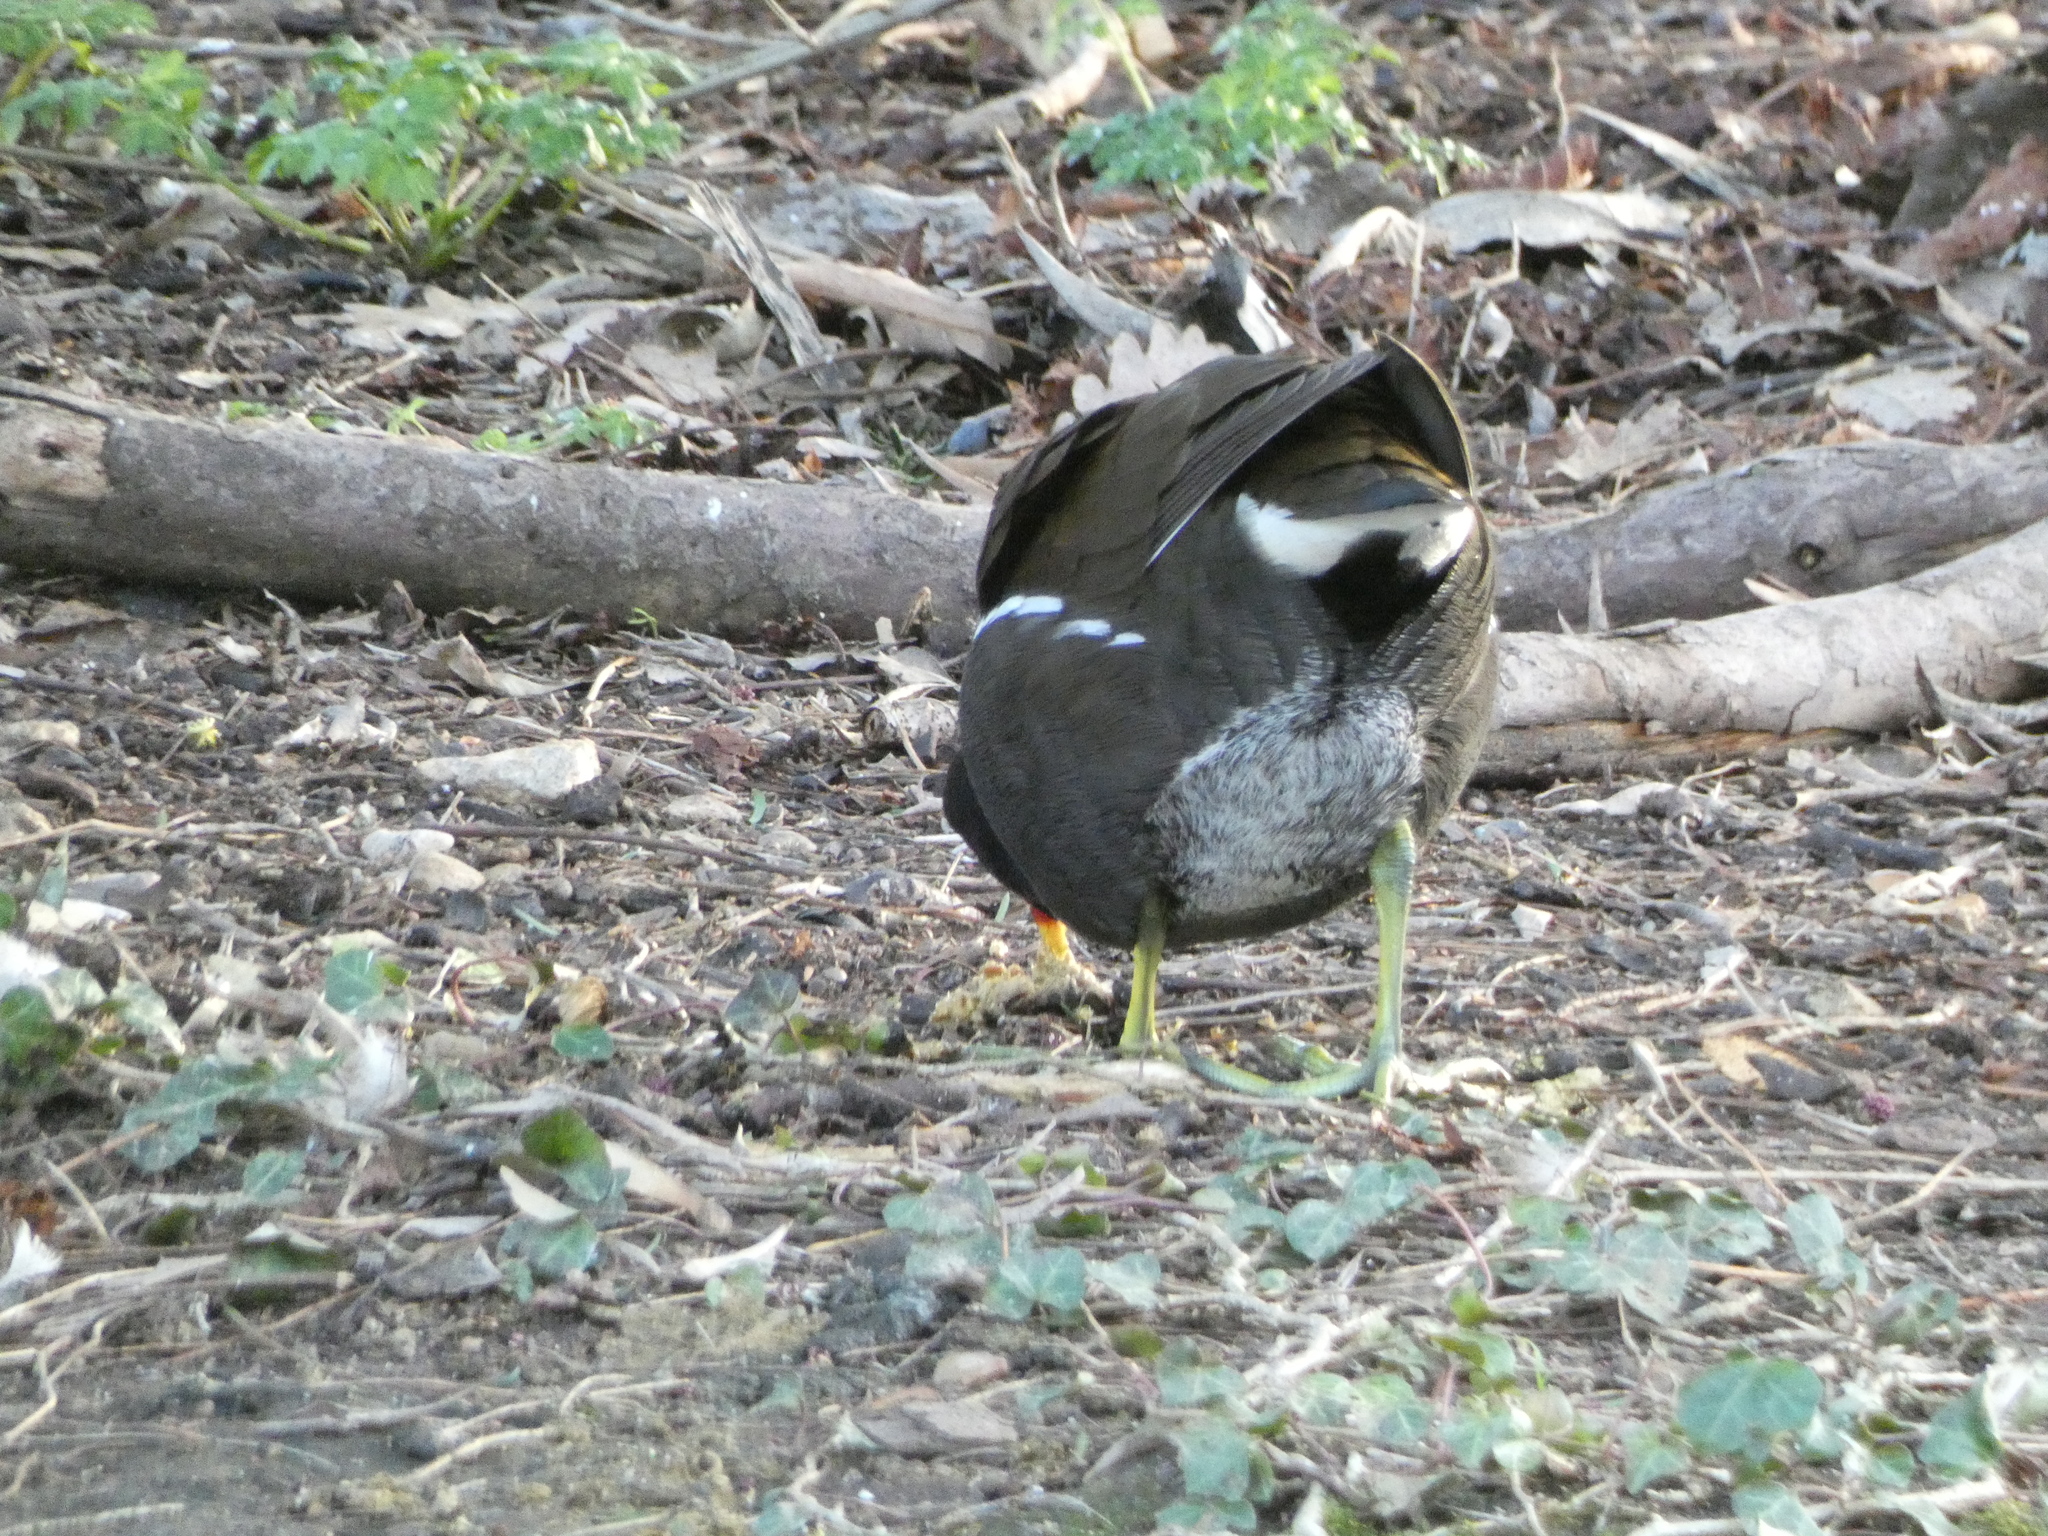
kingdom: Animalia
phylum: Chordata
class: Aves
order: Gruiformes
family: Rallidae
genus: Gallinula
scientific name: Gallinula chloropus
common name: Common moorhen
